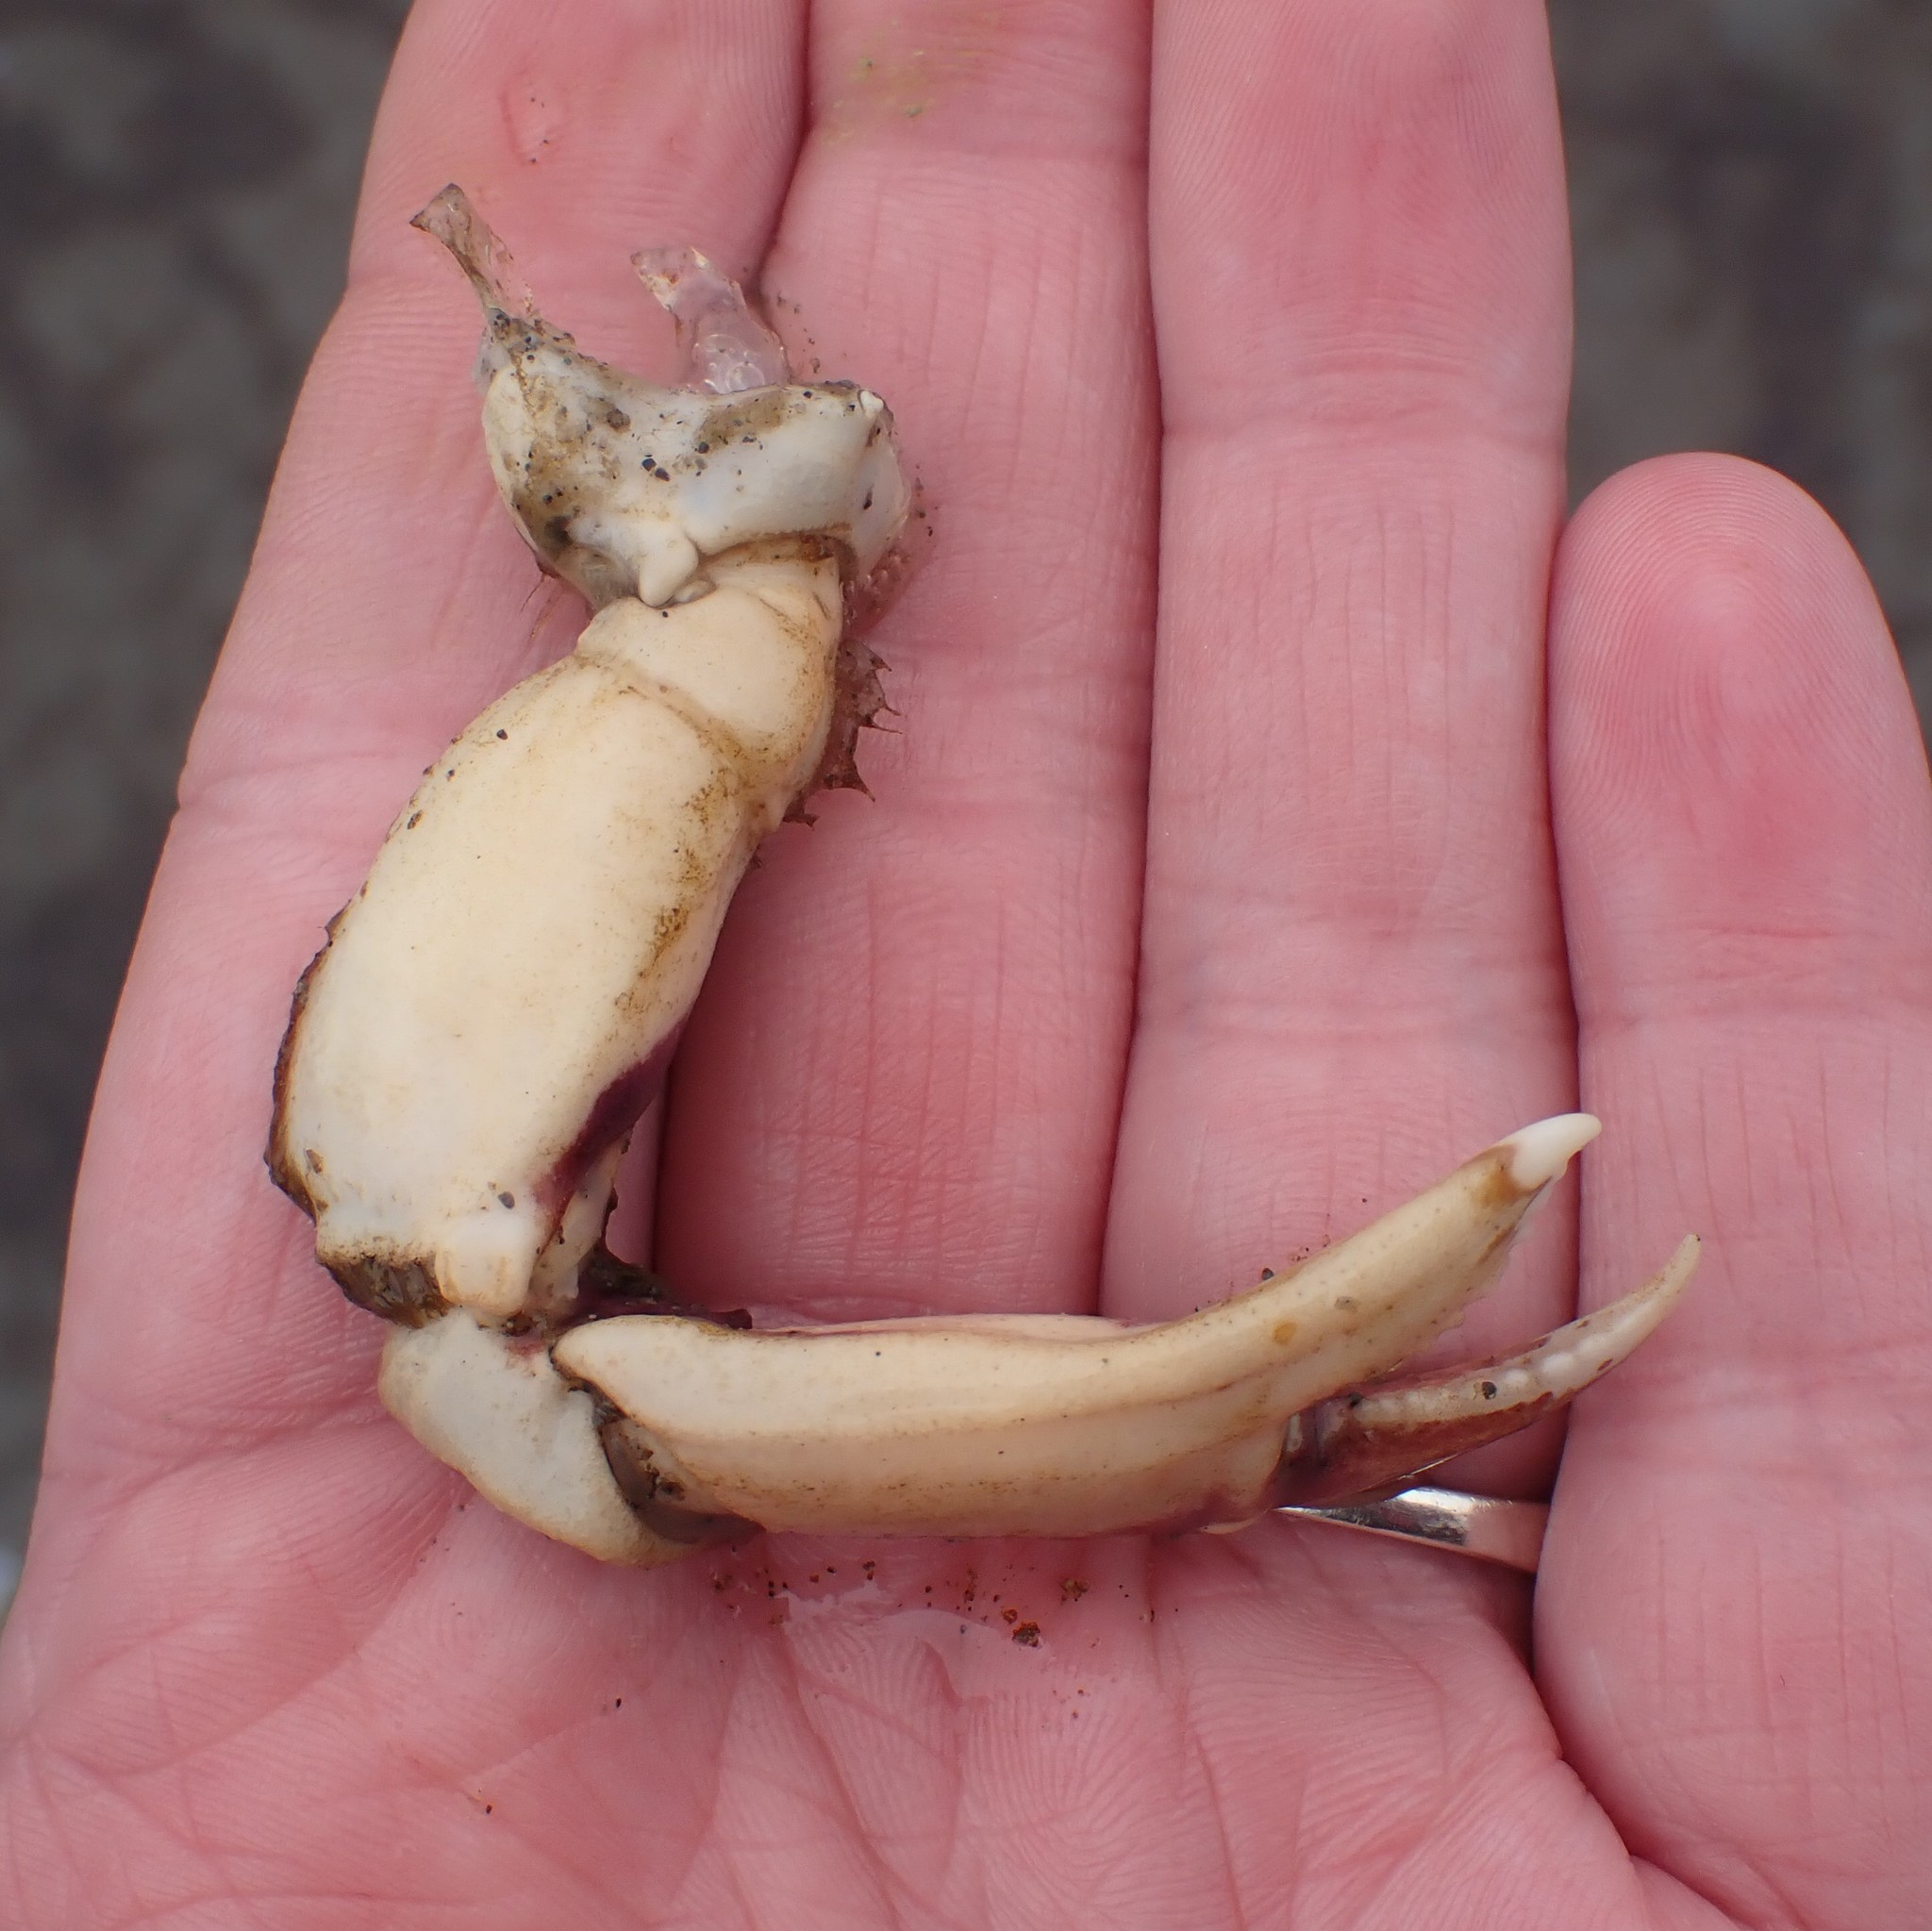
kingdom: Animalia
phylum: Arthropoda
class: Malacostraca
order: Decapoda
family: Cancridae
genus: Metacarcinus
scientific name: Metacarcinus gracilis
